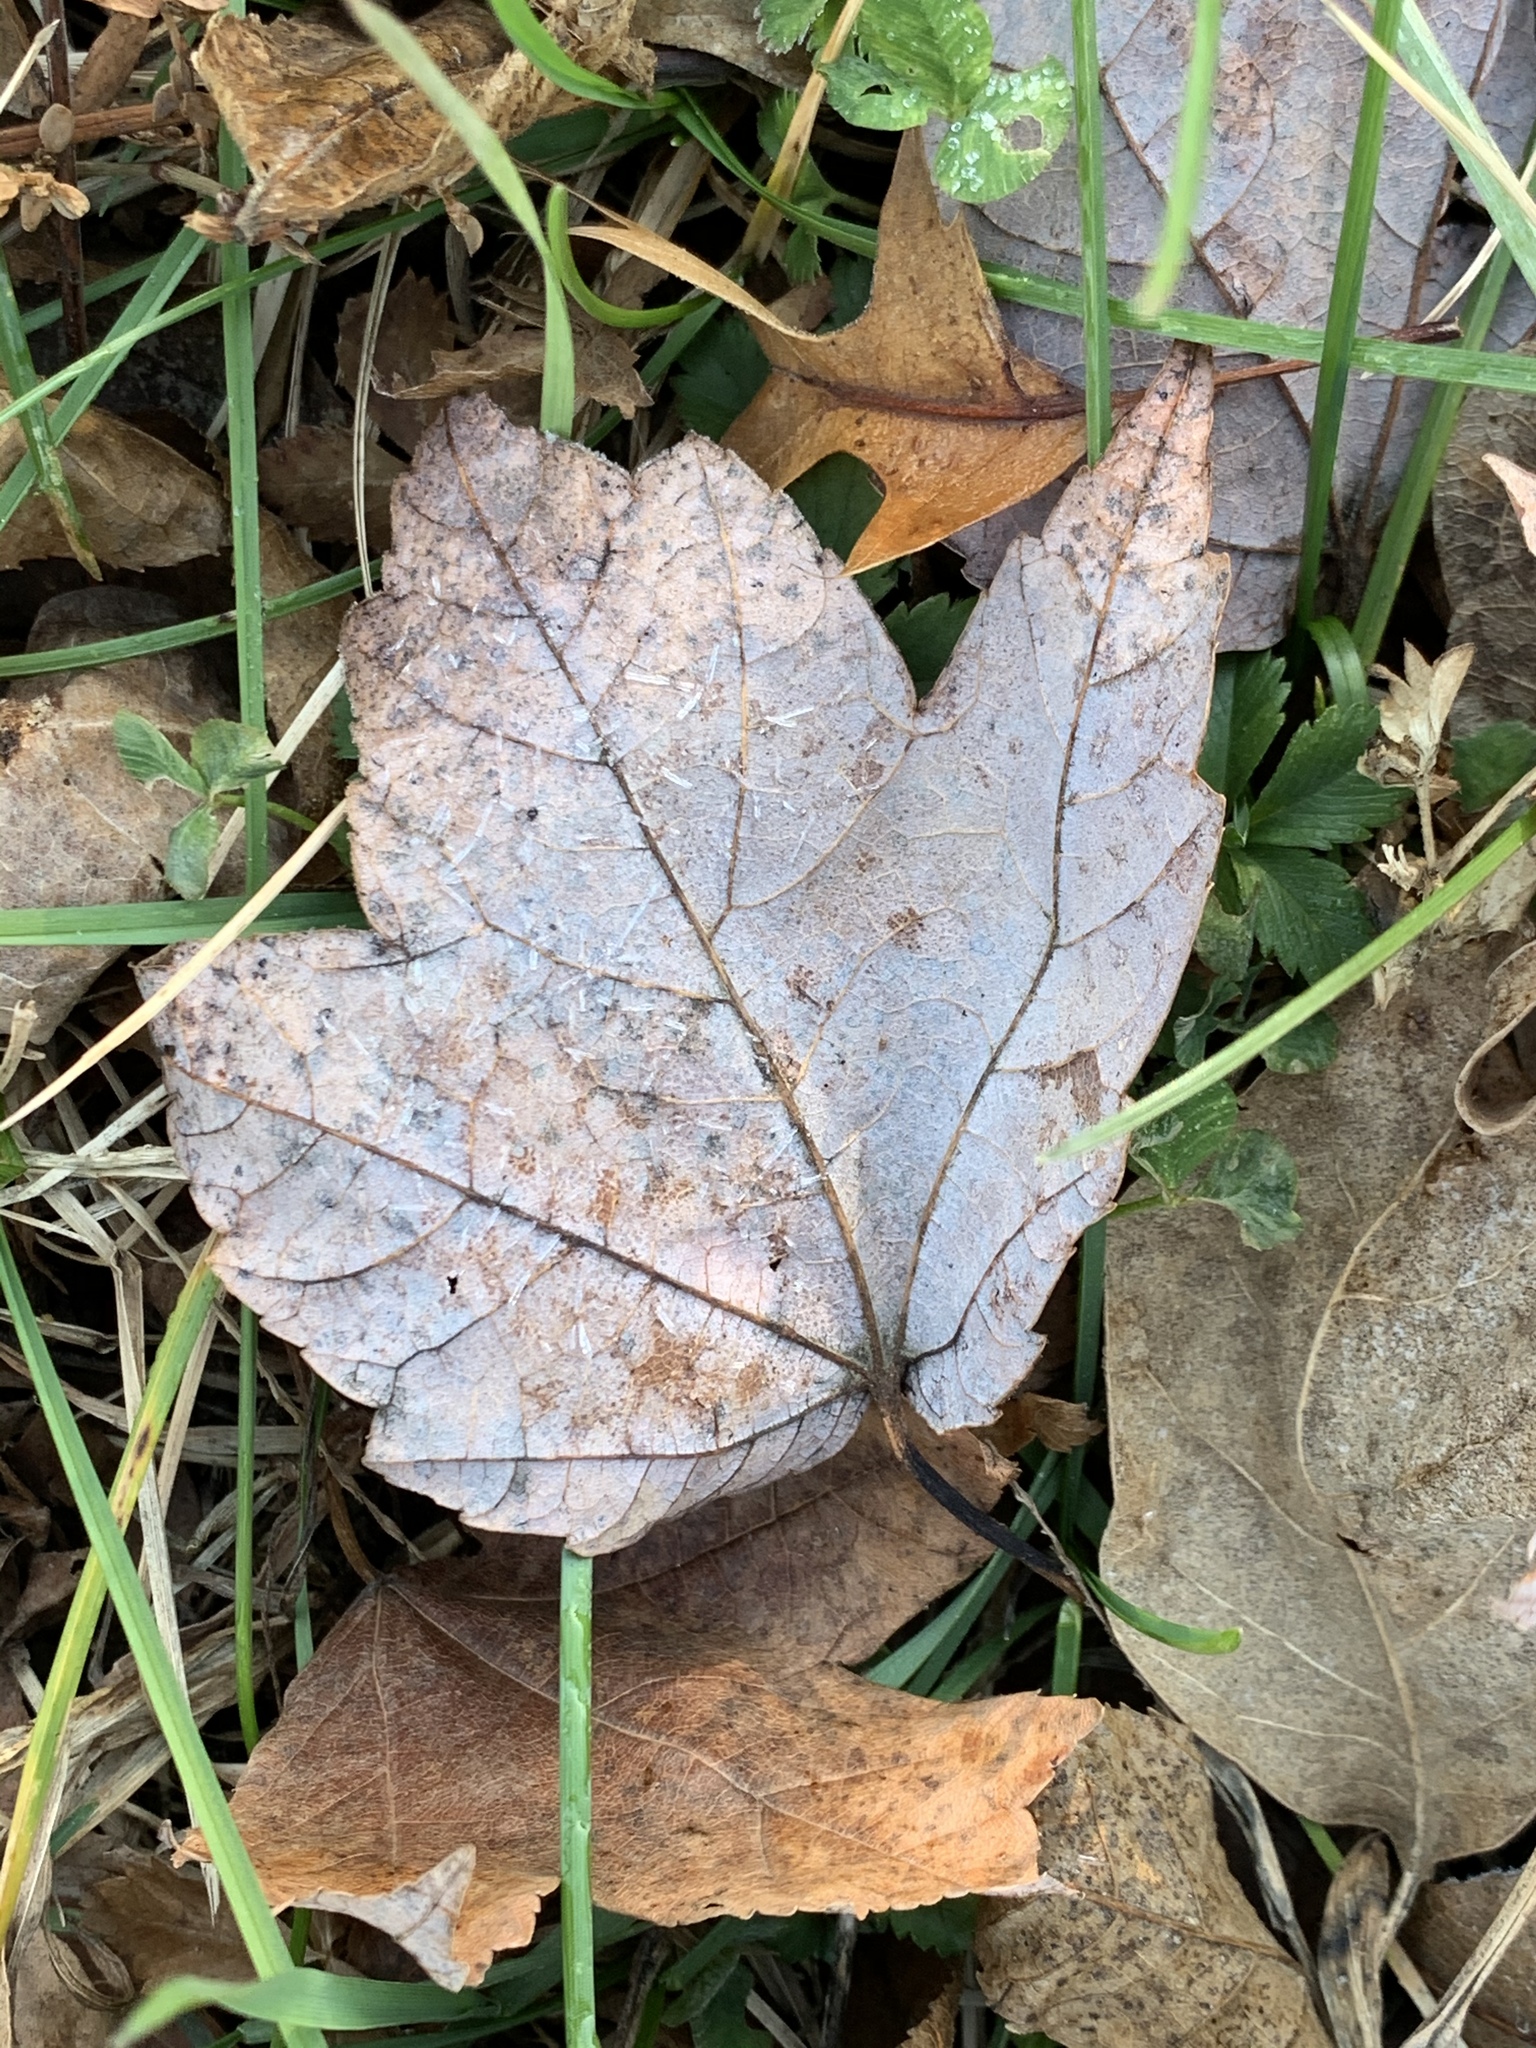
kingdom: Plantae
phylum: Tracheophyta
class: Magnoliopsida
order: Sapindales
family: Sapindaceae
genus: Acer
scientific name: Acer rubrum
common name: Red maple
